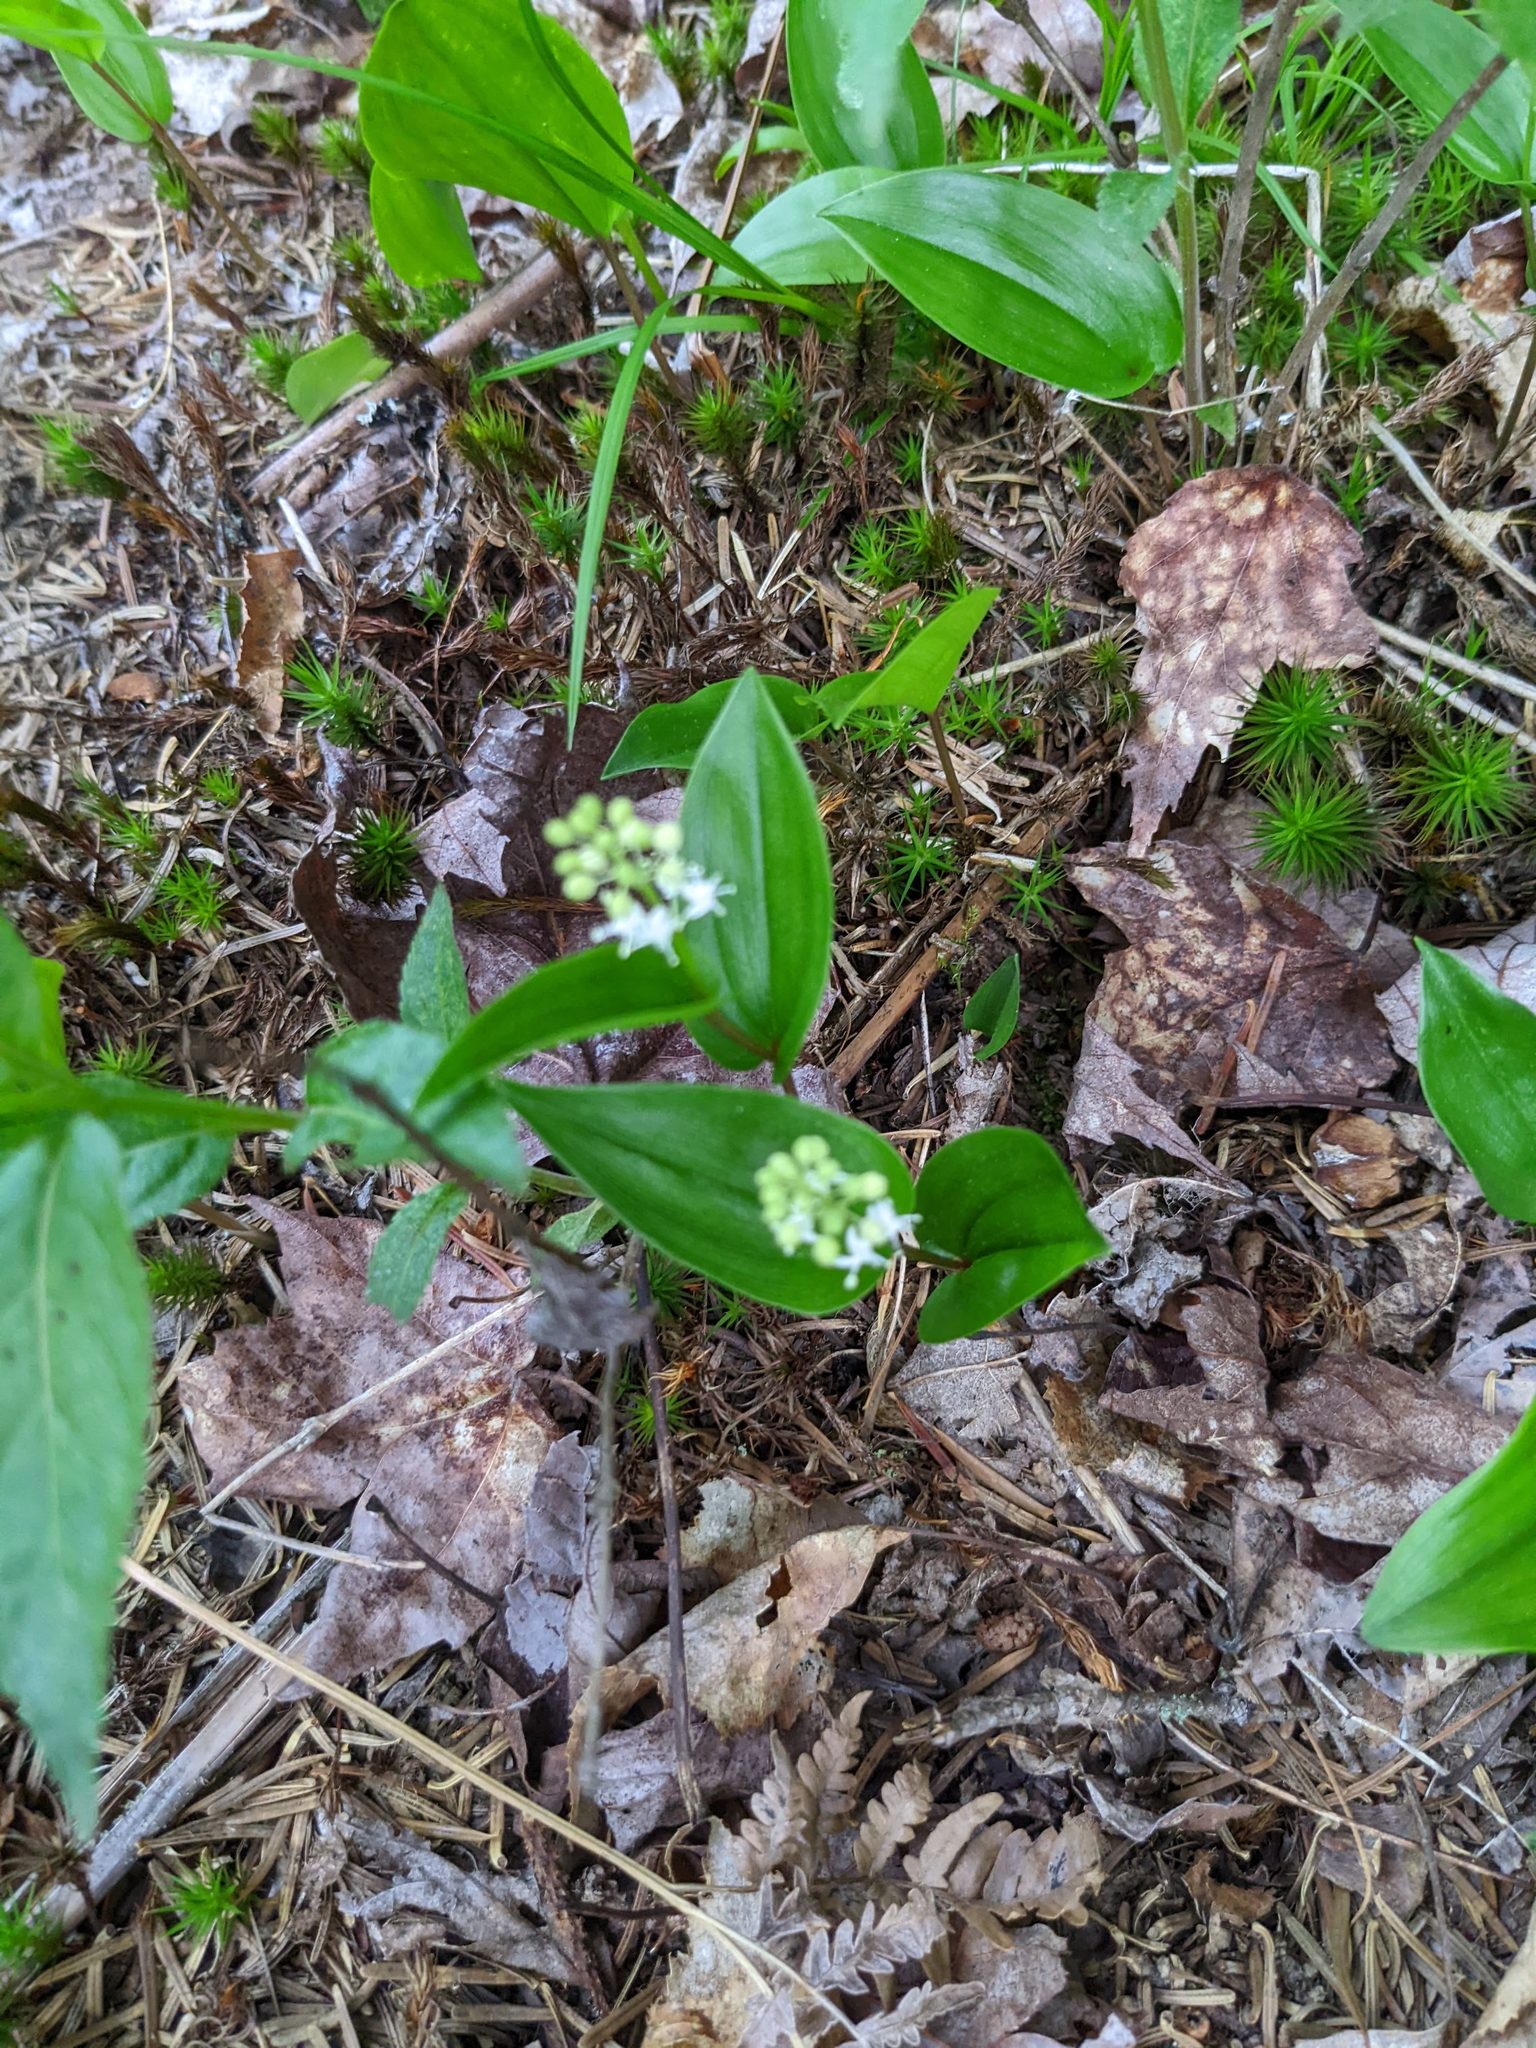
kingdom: Plantae
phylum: Tracheophyta
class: Liliopsida
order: Asparagales
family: Asparagaceae
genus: Maianthemum
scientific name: Maianthemum canadense
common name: False lily-of-the-valley
